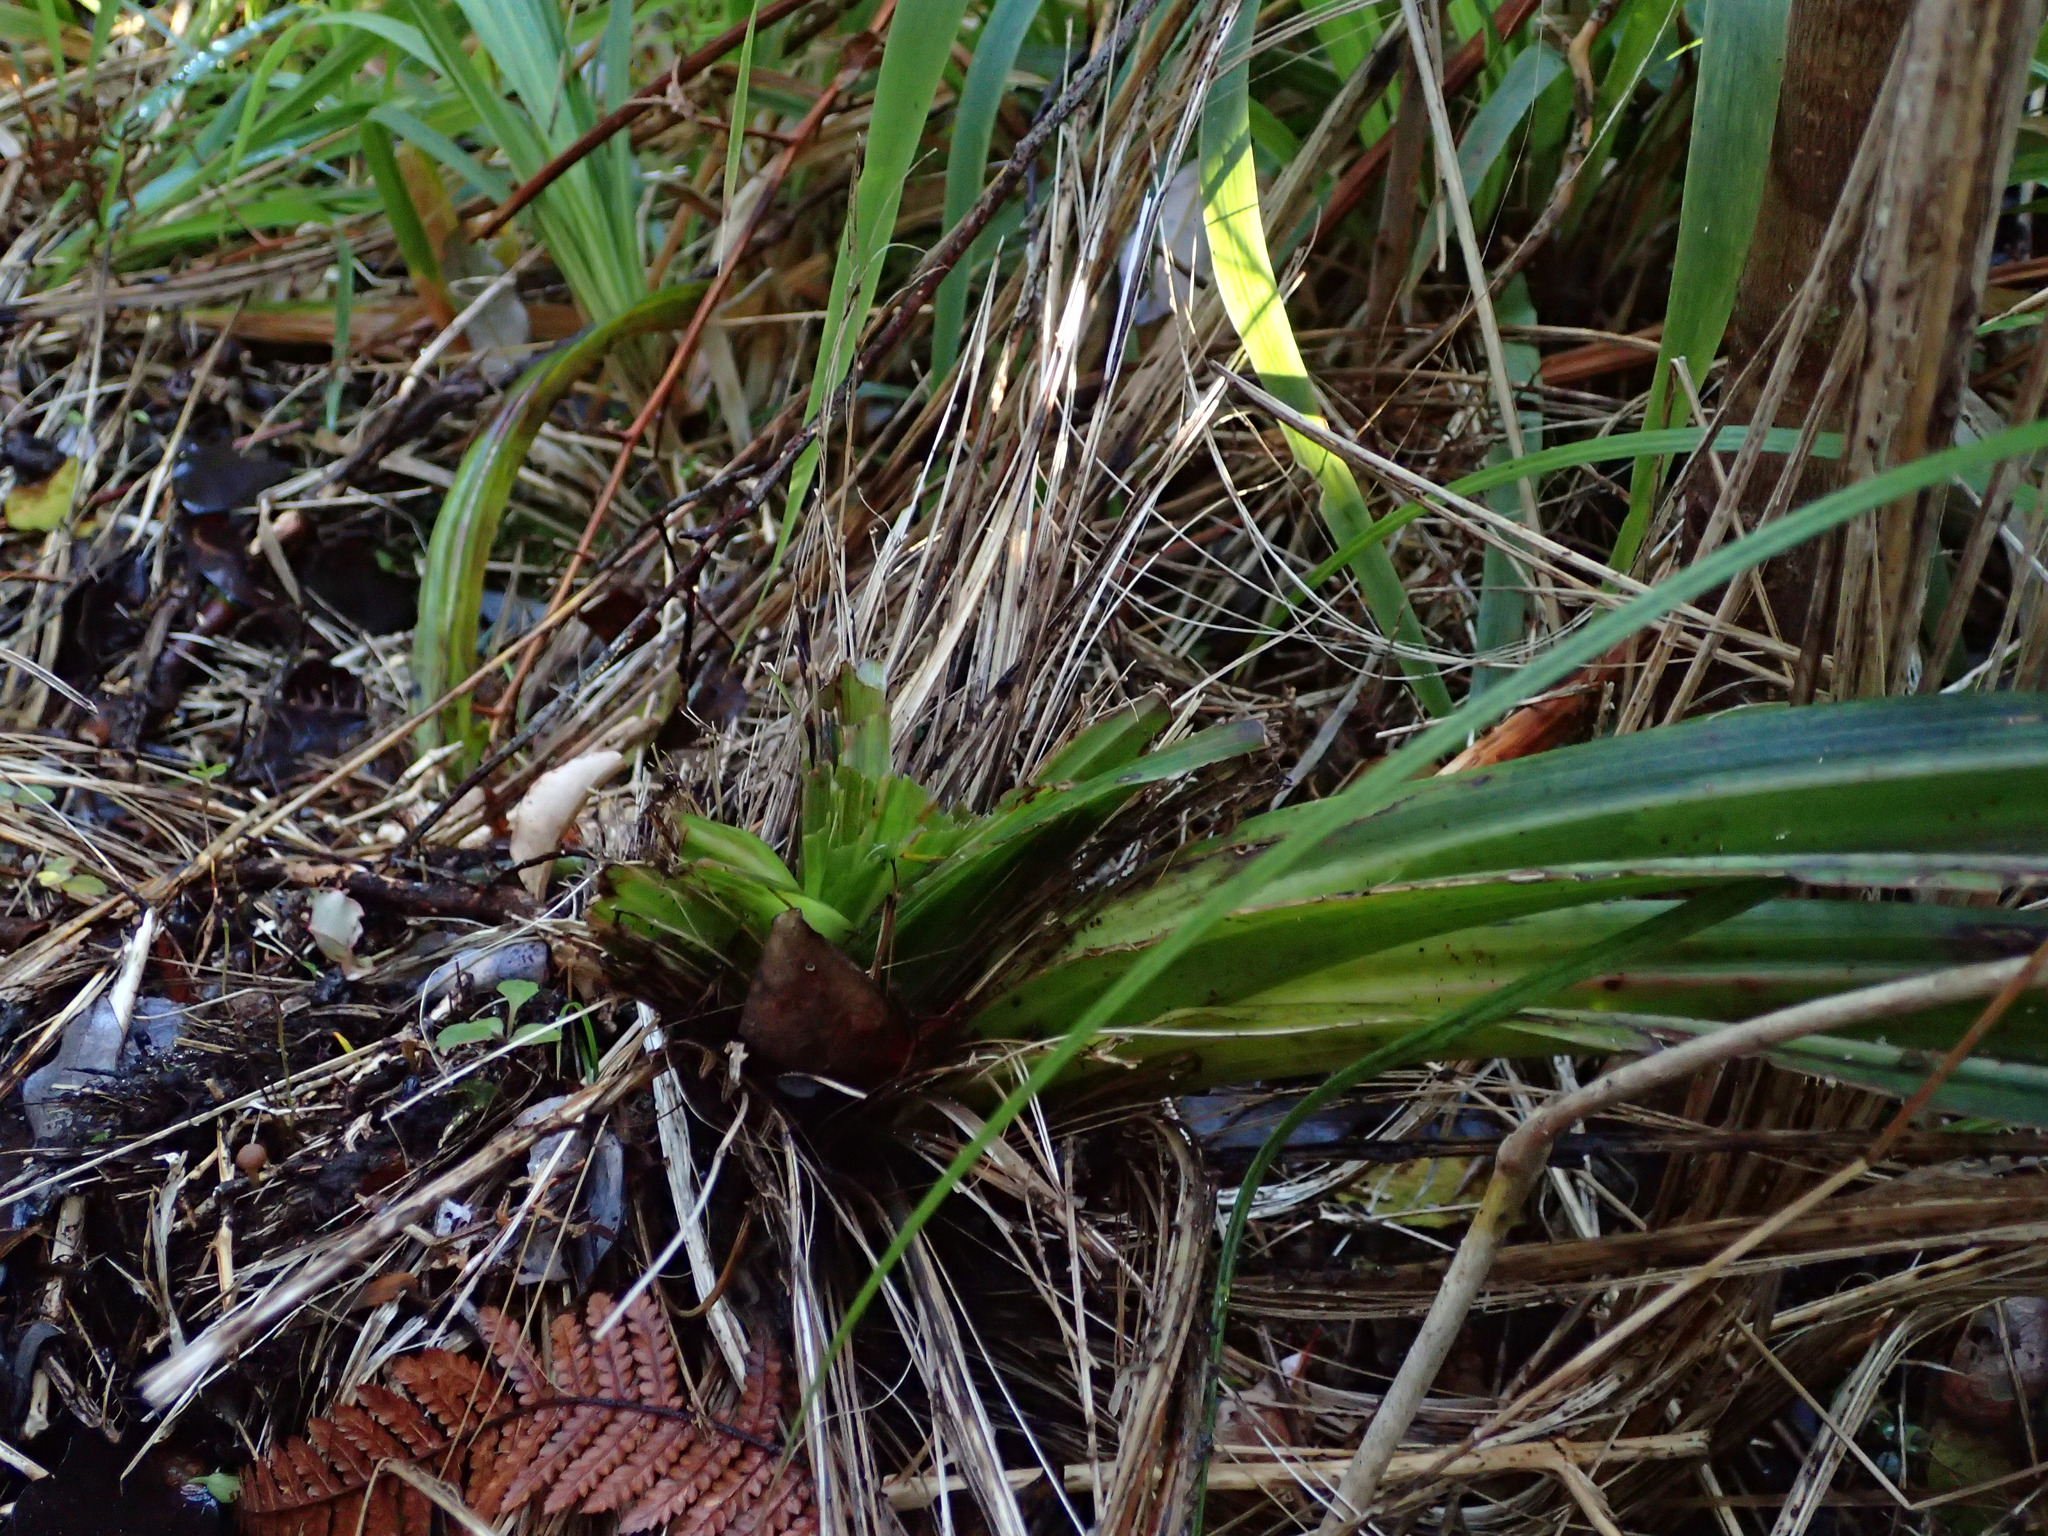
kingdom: Plantae
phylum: Tracheophyta
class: Liliopsida
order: Asparagales
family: Asteliaceae
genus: Astelia
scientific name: Astelia fragrans
